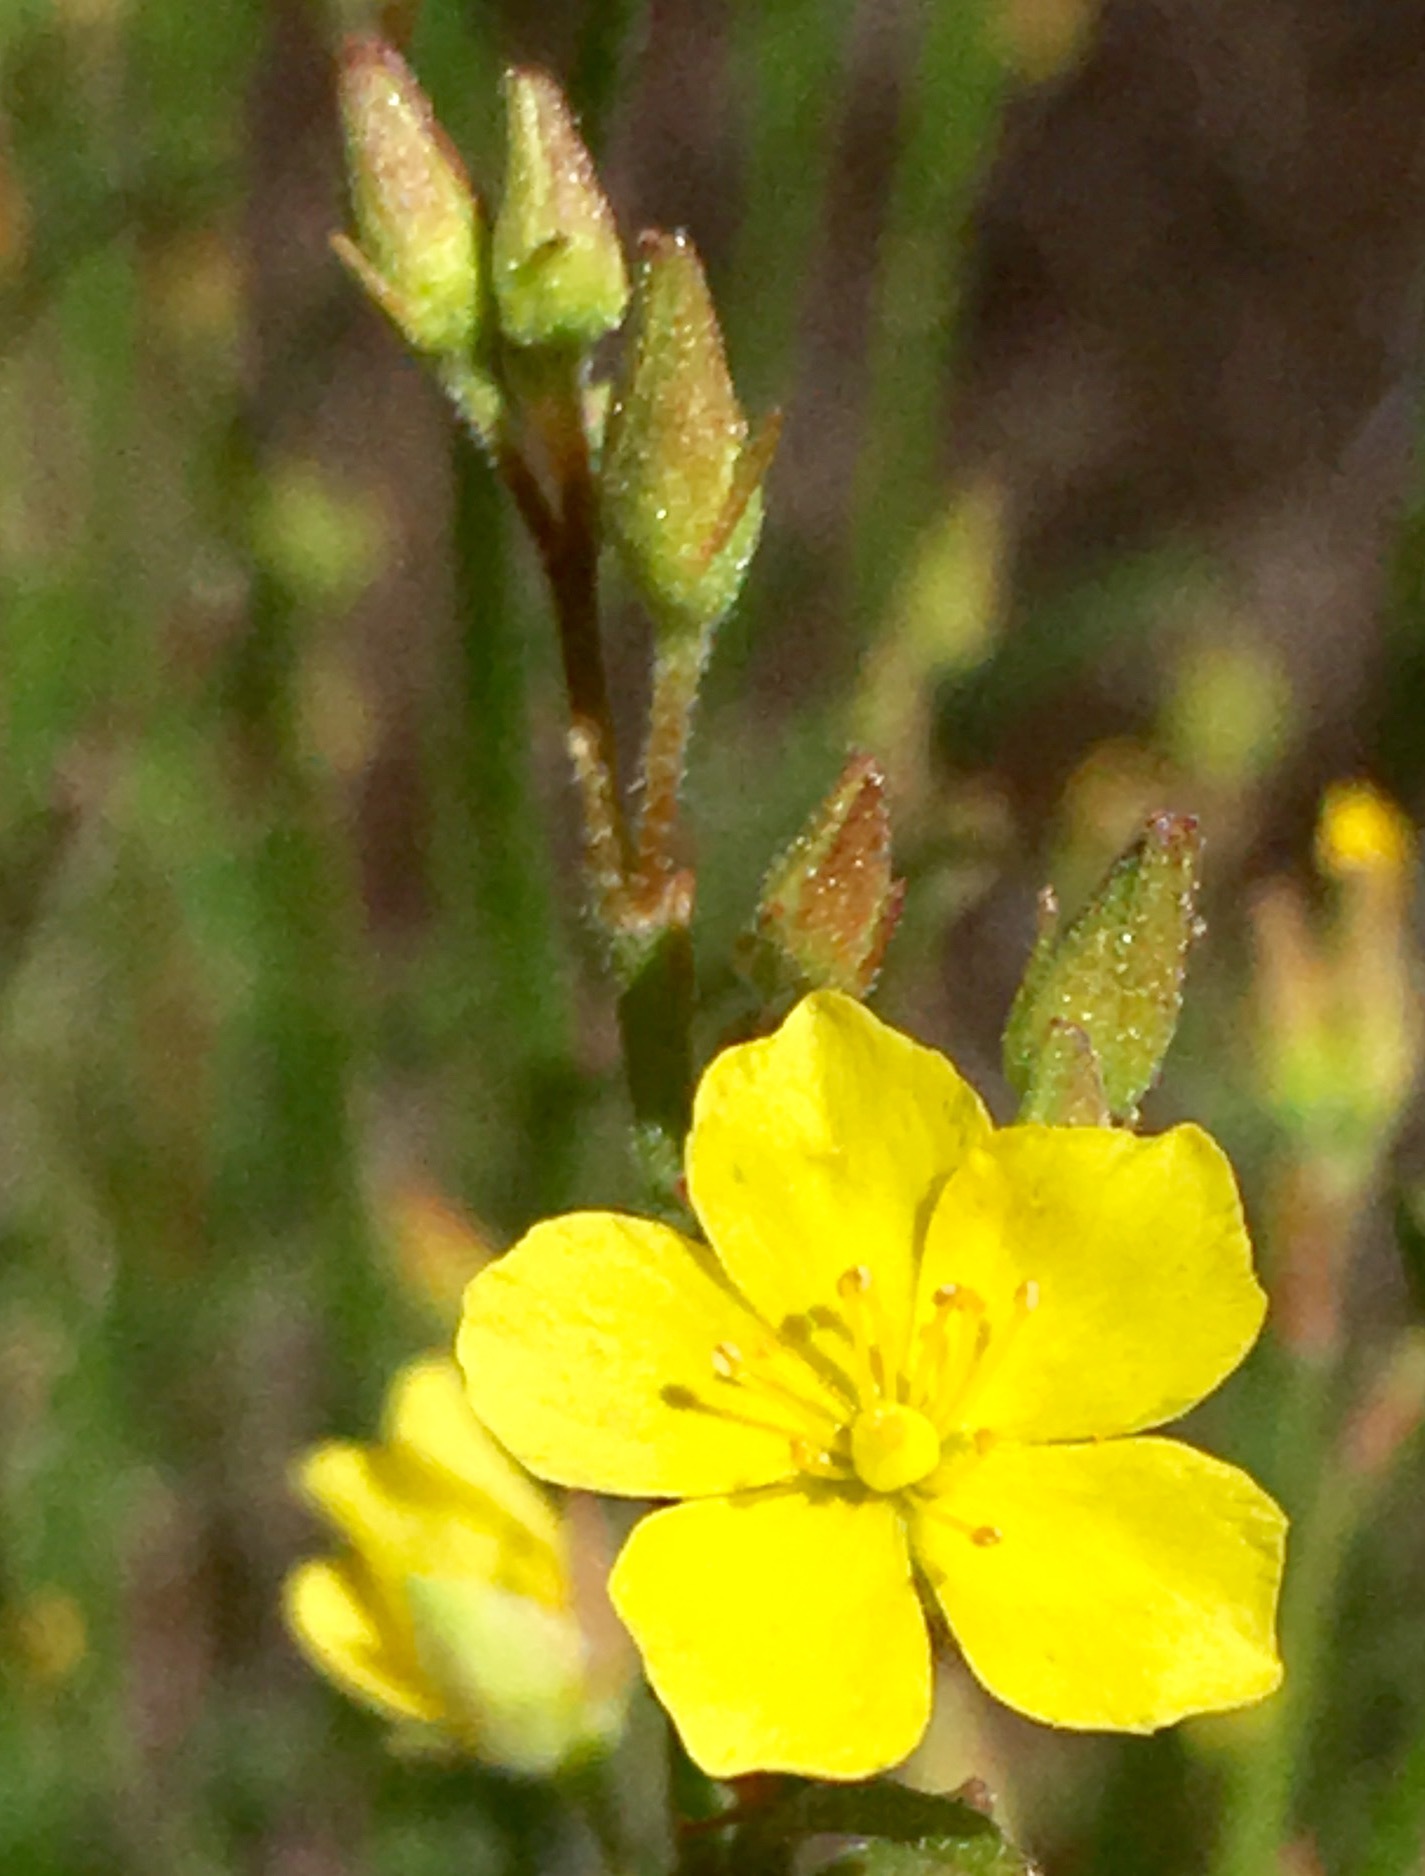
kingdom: Plantae
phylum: Tracheophyta
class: Magnoliopsida
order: Malvales
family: Cistaceae
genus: Crocanthemum
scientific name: Crocanthemum scoparium
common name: Broom-rose
